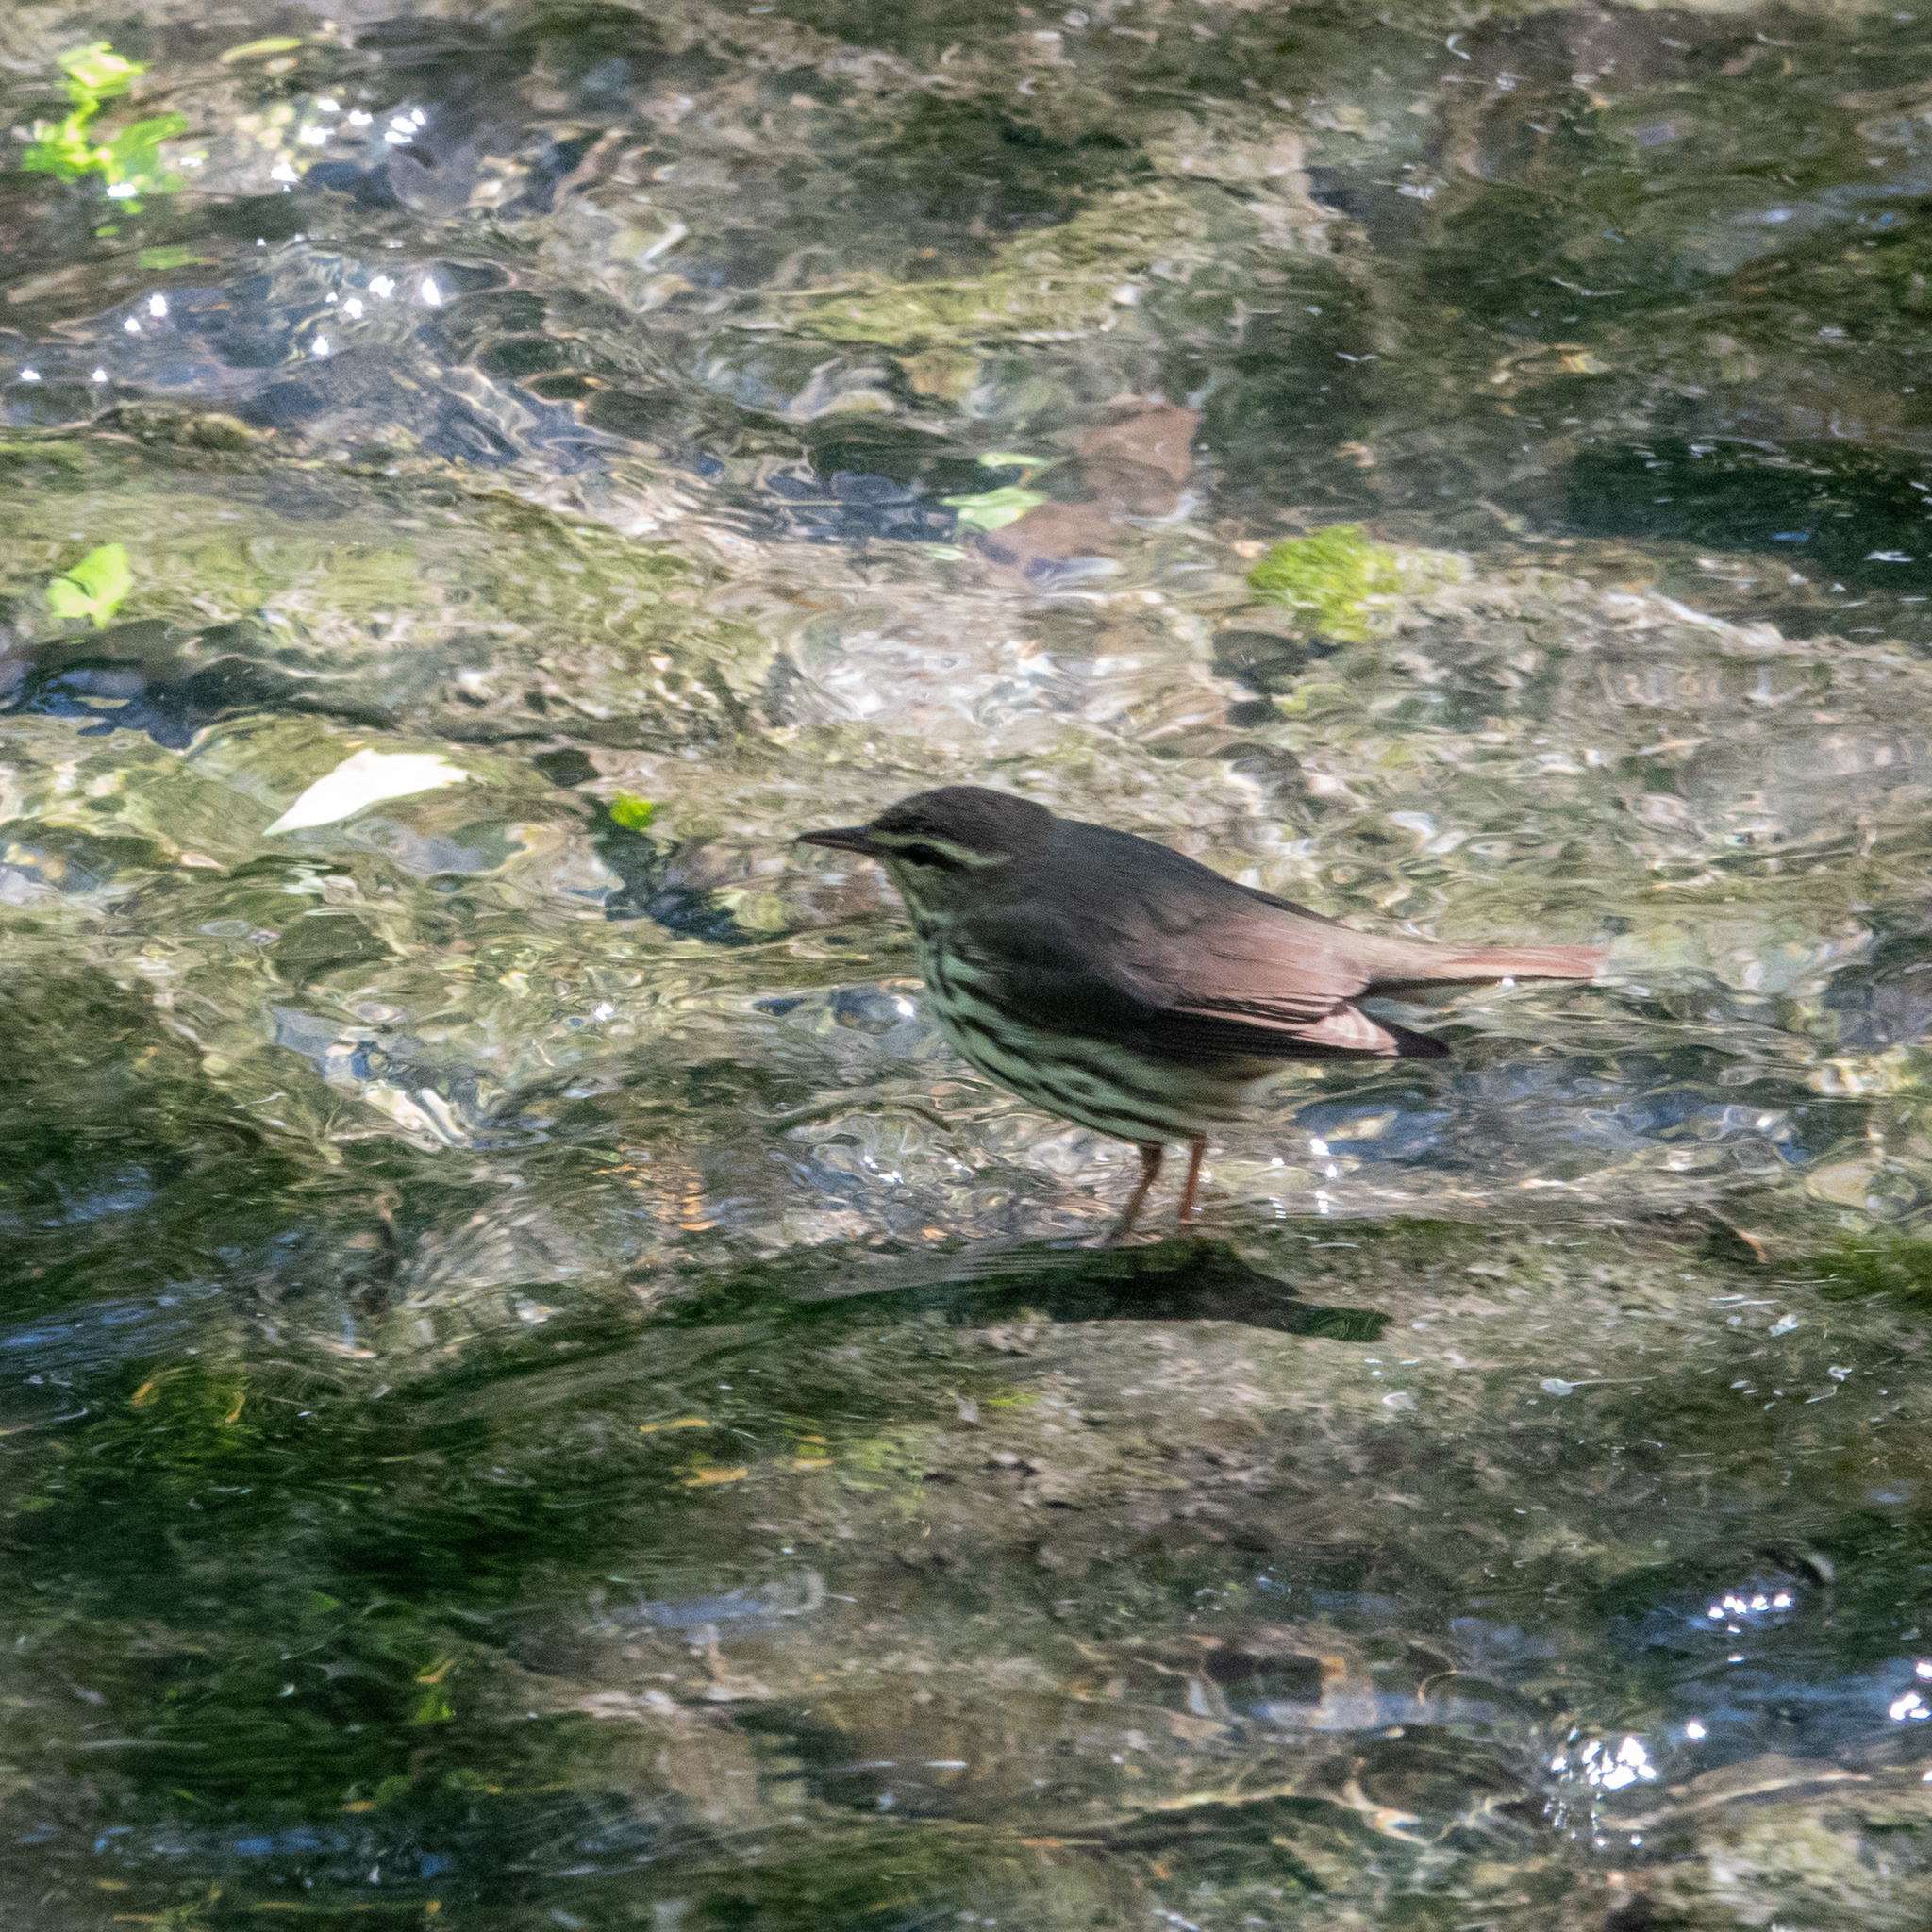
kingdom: Animalia
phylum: Chordata
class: Aves
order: Passeriformes
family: Parulidae
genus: Parkesia
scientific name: Parkesia noveboracensis
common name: Northern waterthrush
